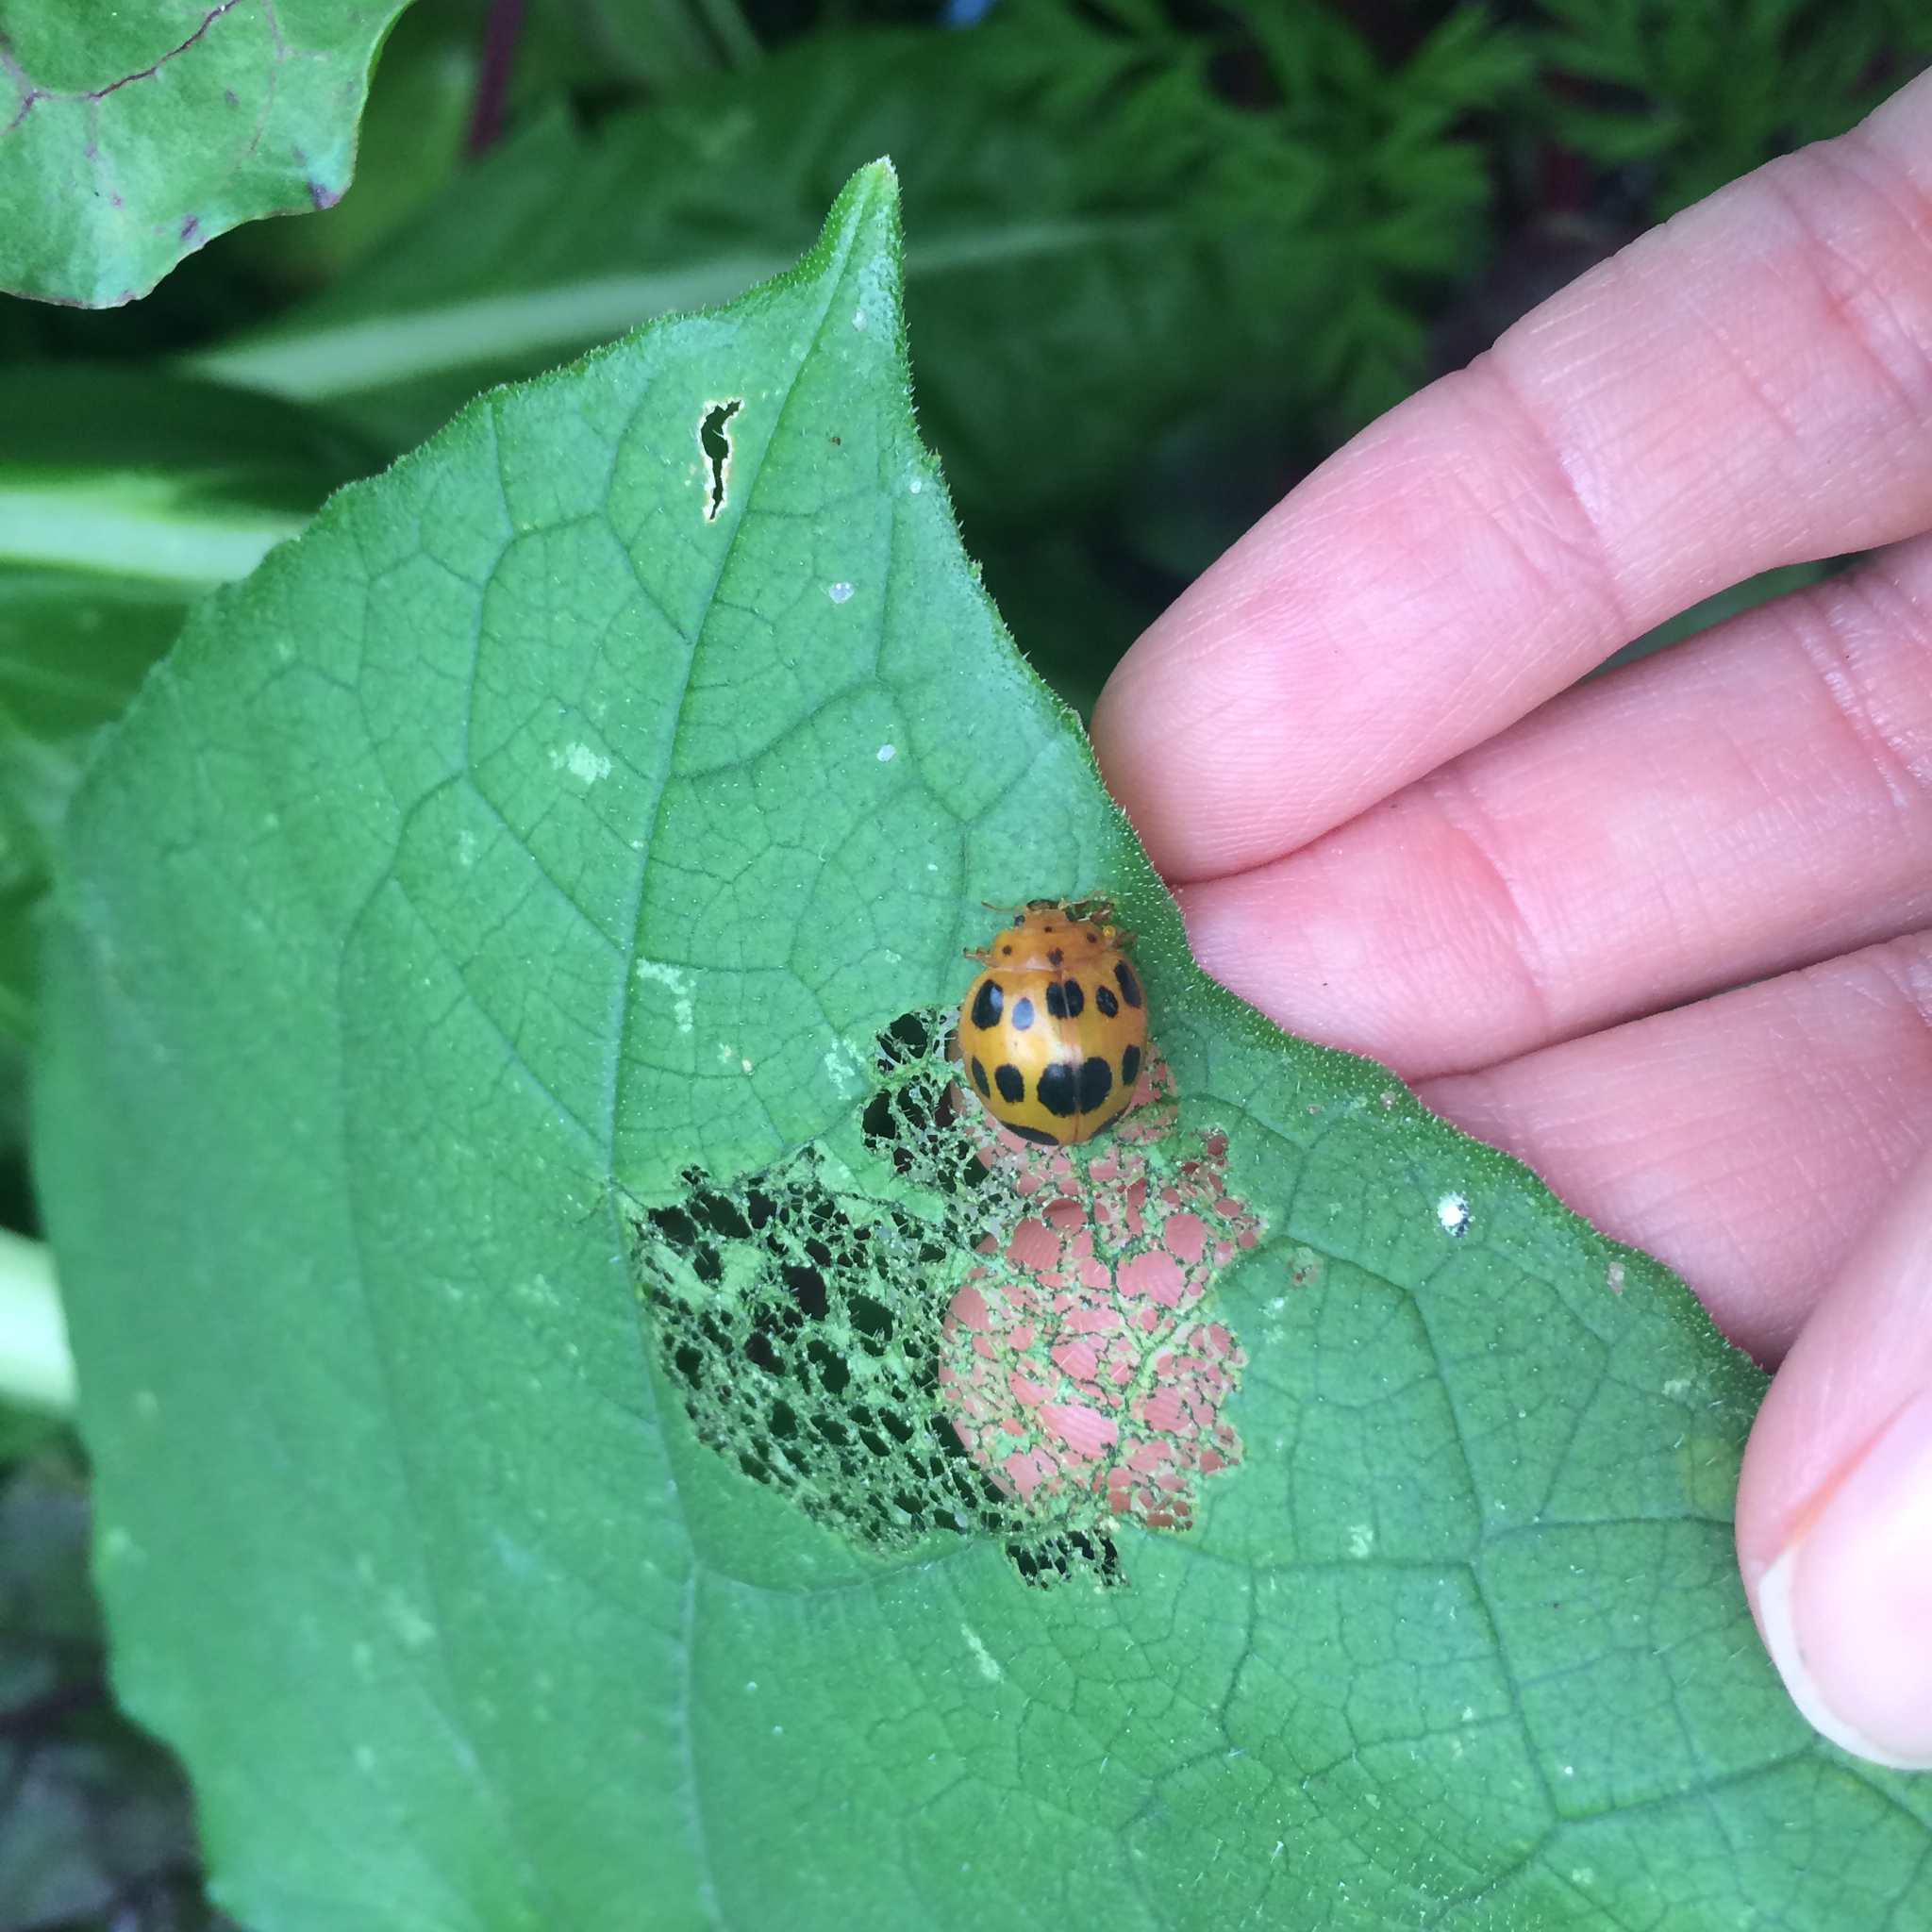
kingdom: Animalia
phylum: Arthropoda
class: Insecta
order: Coleoptera
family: Coccinellidae
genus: Epilachna
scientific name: Epilachna borealis
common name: Squash beetle
